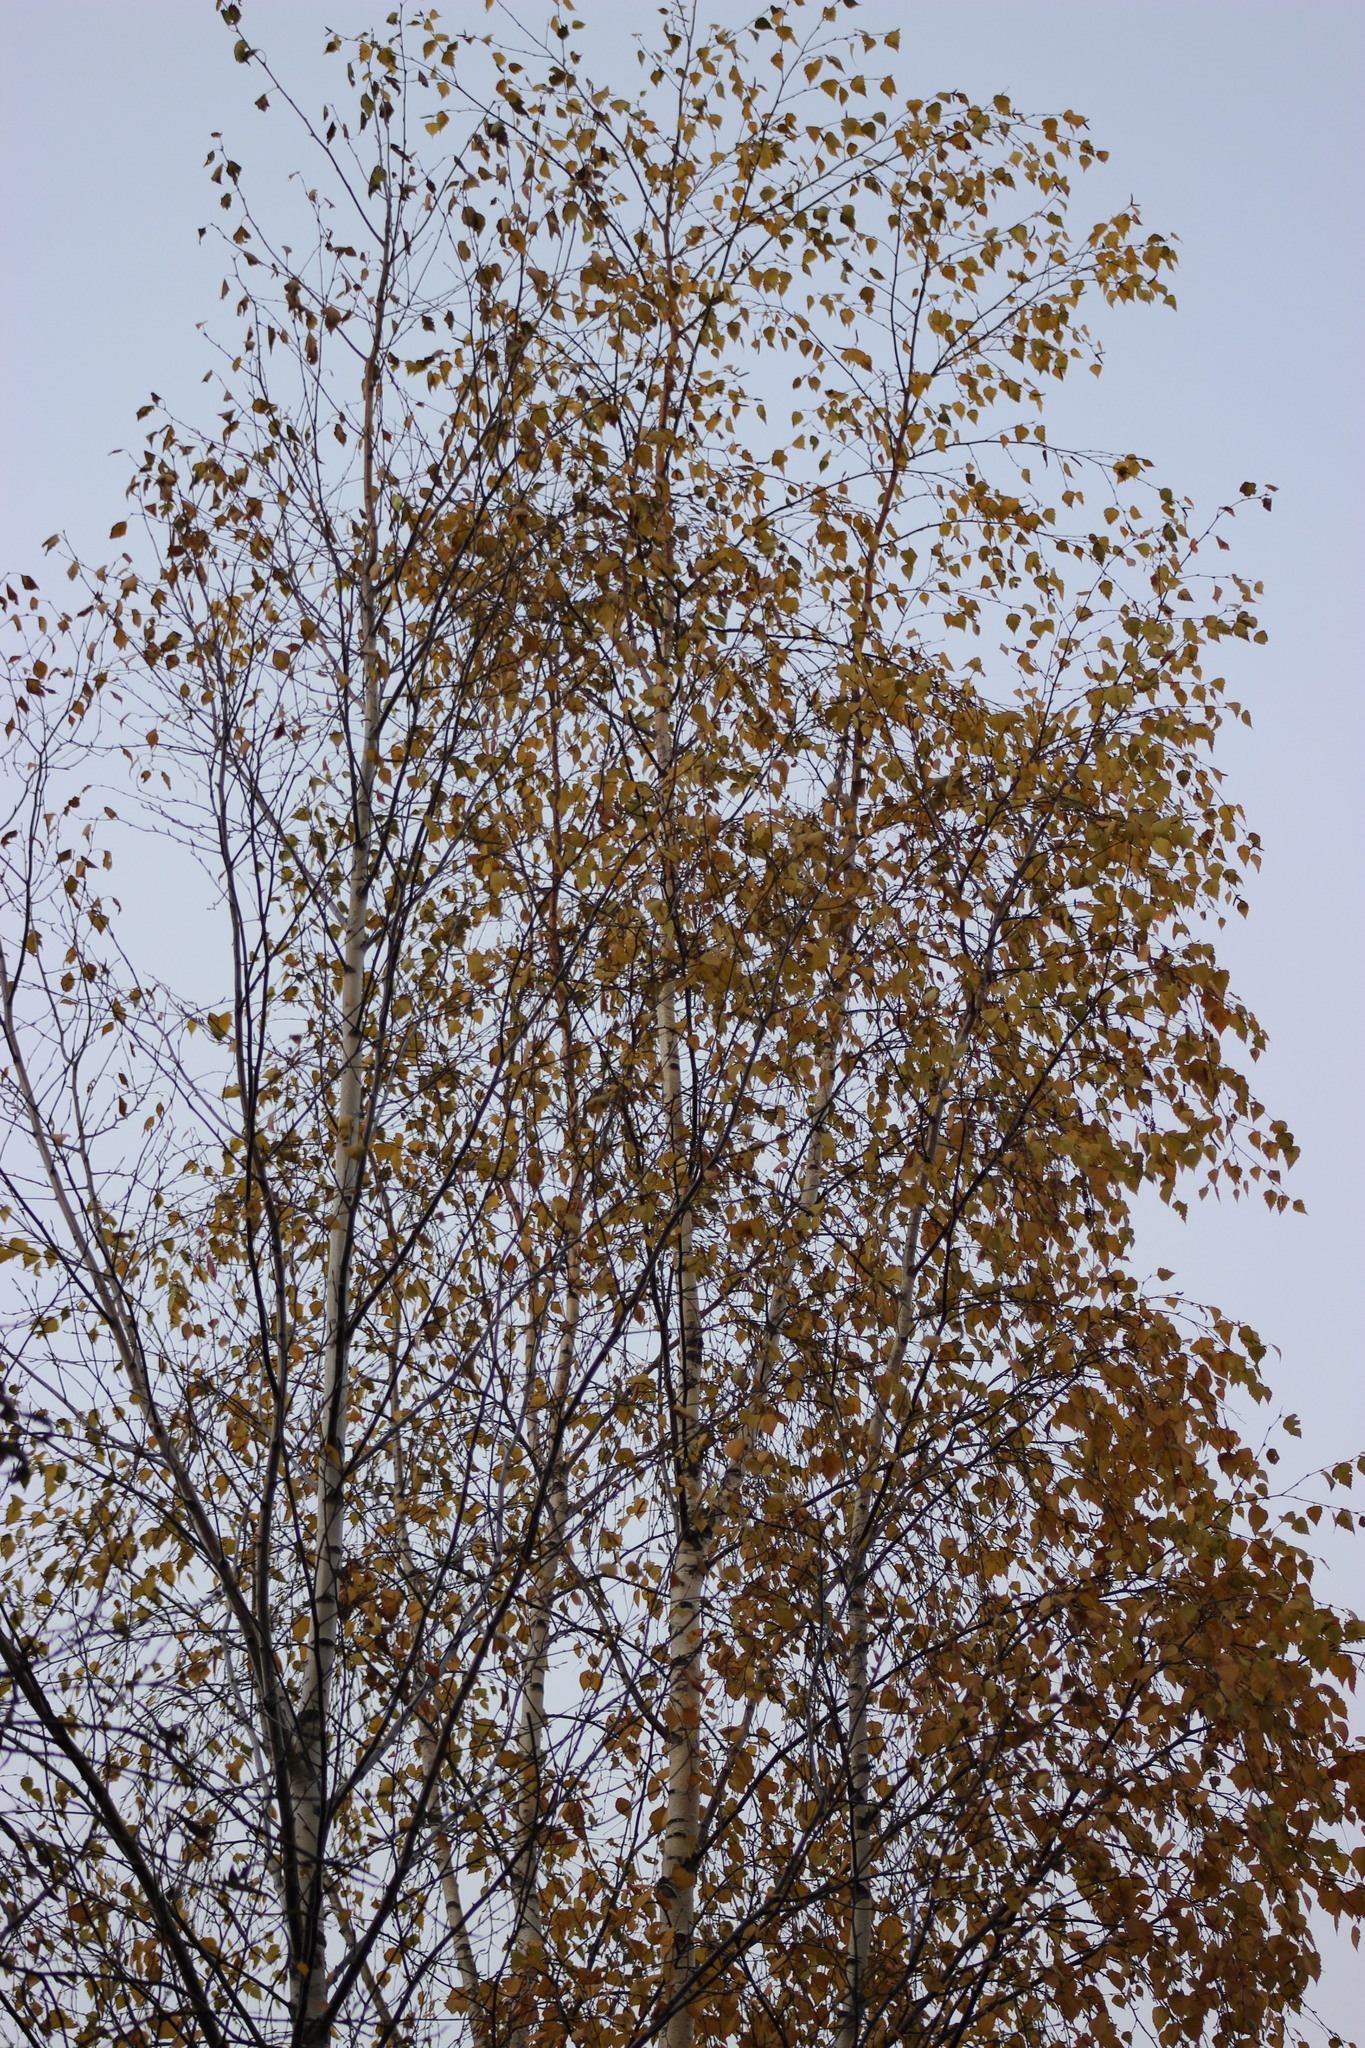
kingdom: Plantae
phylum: Tracheophyta
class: Magnoliopsida
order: Fagales
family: Betulaceae
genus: Betula
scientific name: Betula pubescens
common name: Downy birch
